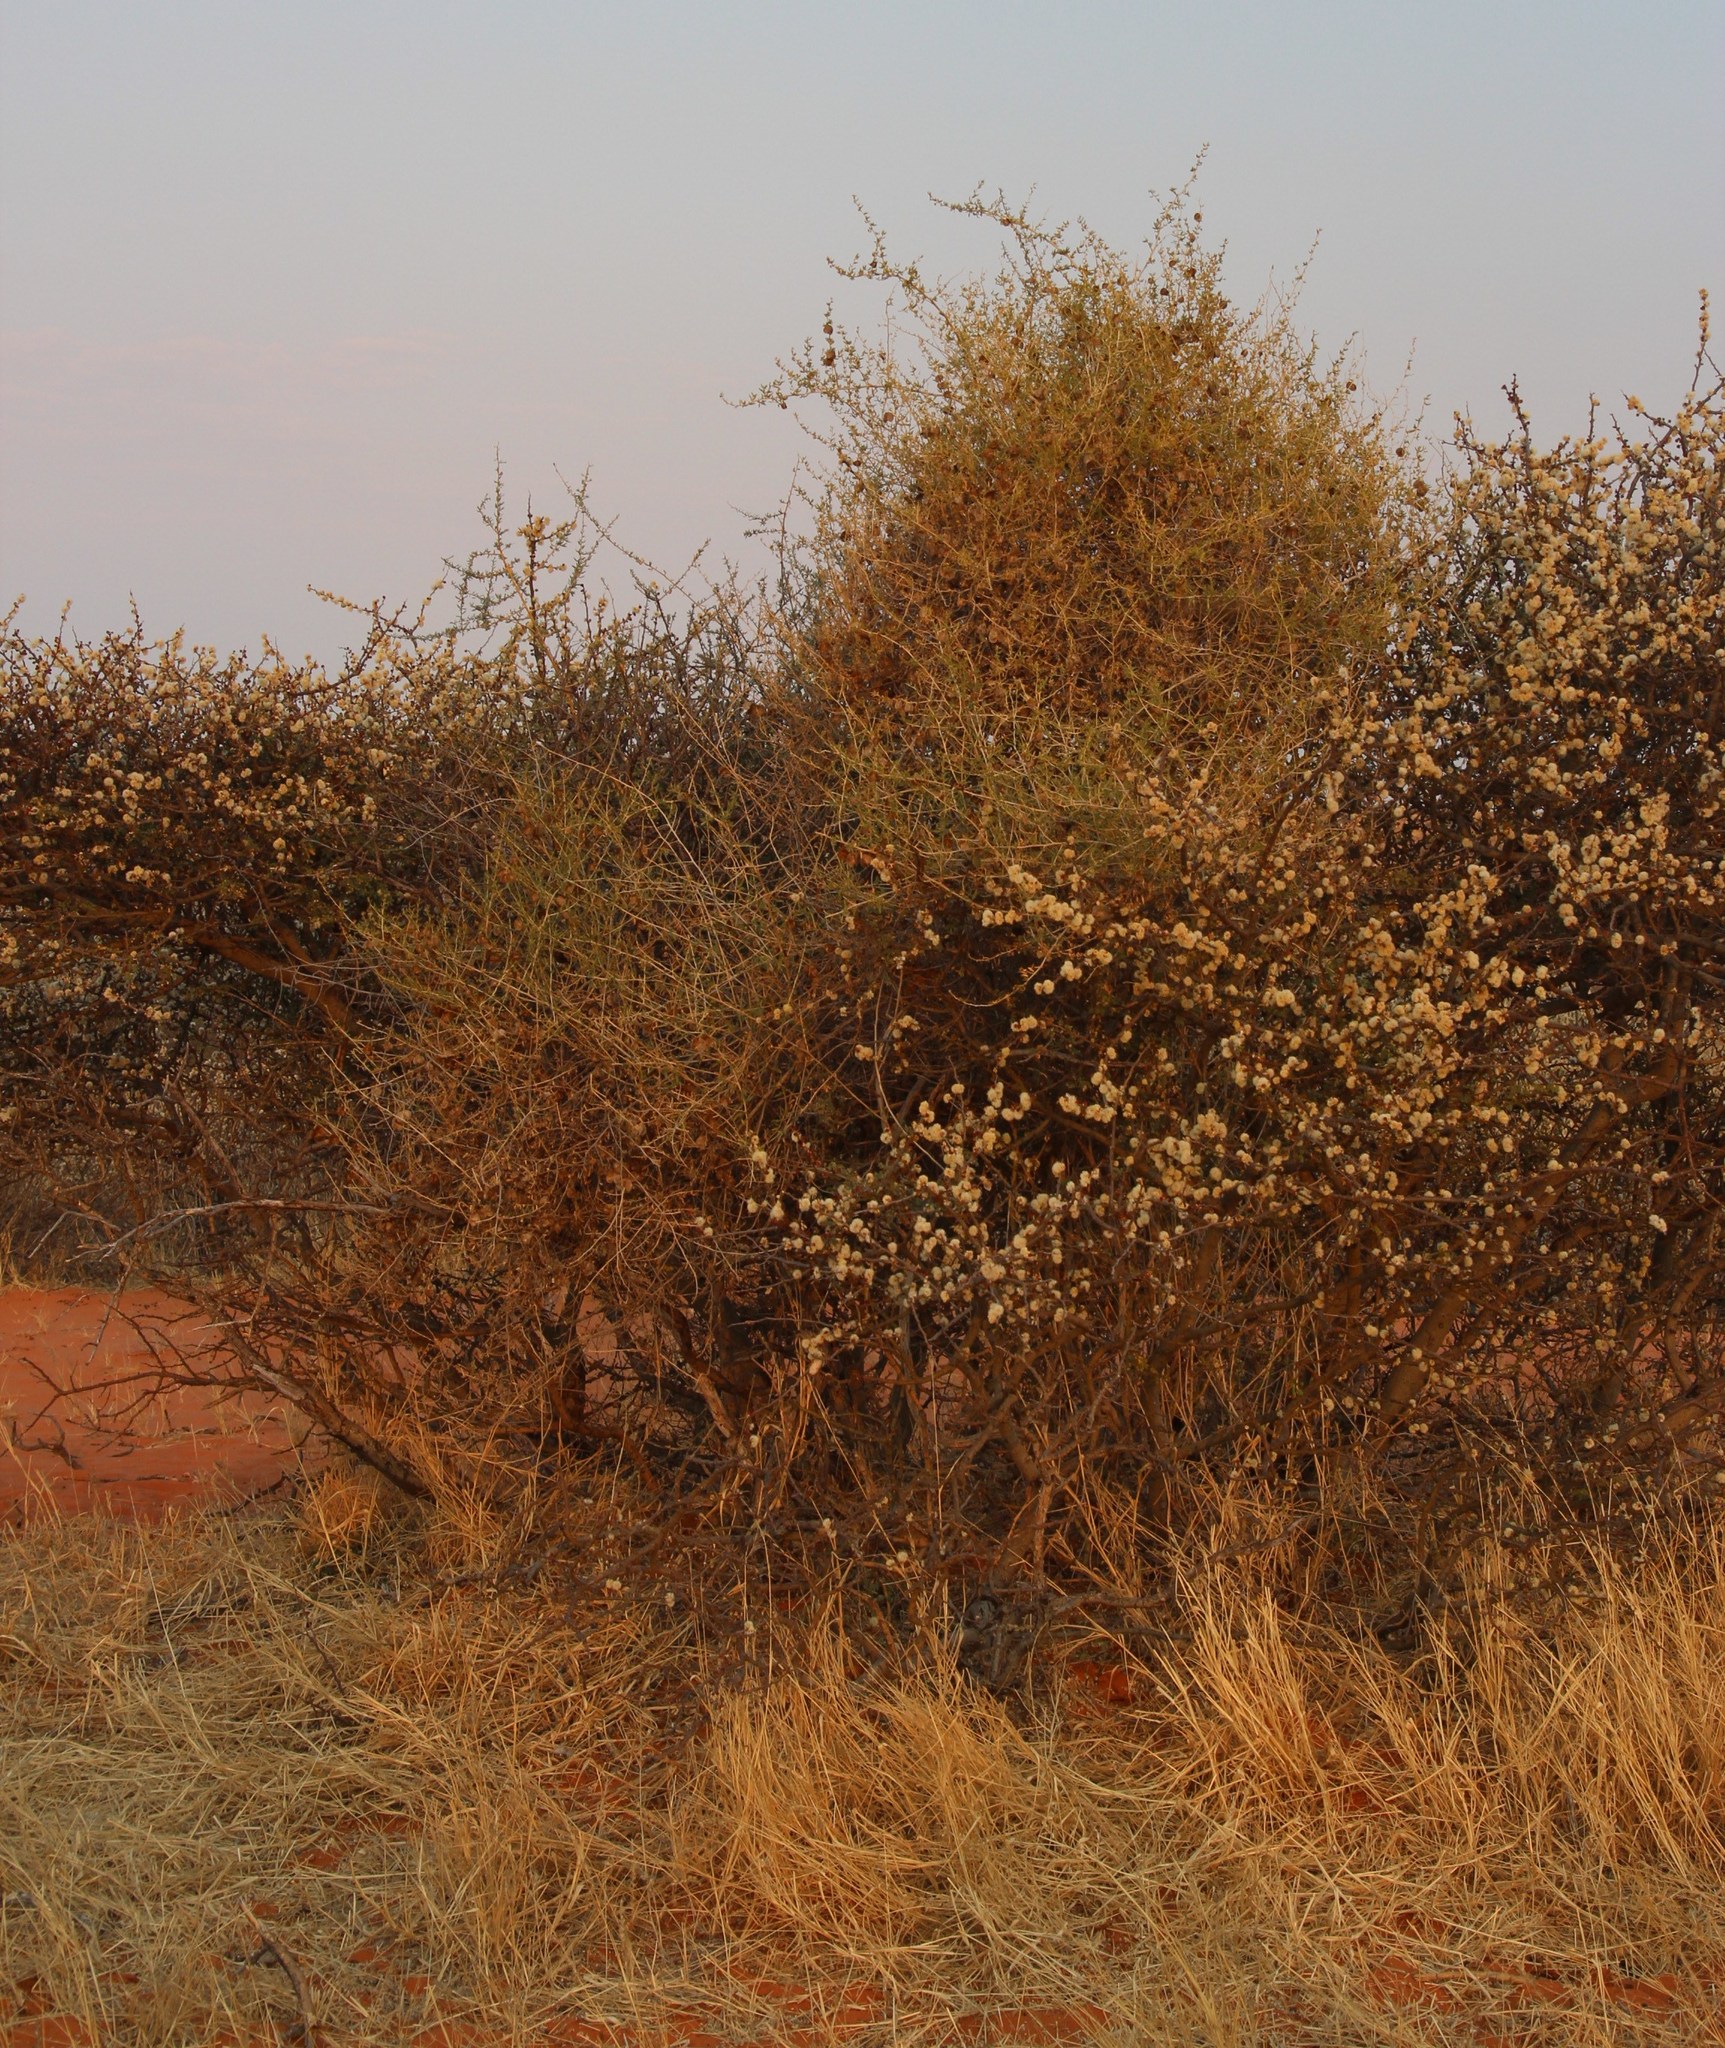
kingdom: Plantae
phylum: Tracheophyta
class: Magnoliopsida
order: Caryophyllales
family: Aizoaceae
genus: Tetragonia
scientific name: Tetragonia calycina
